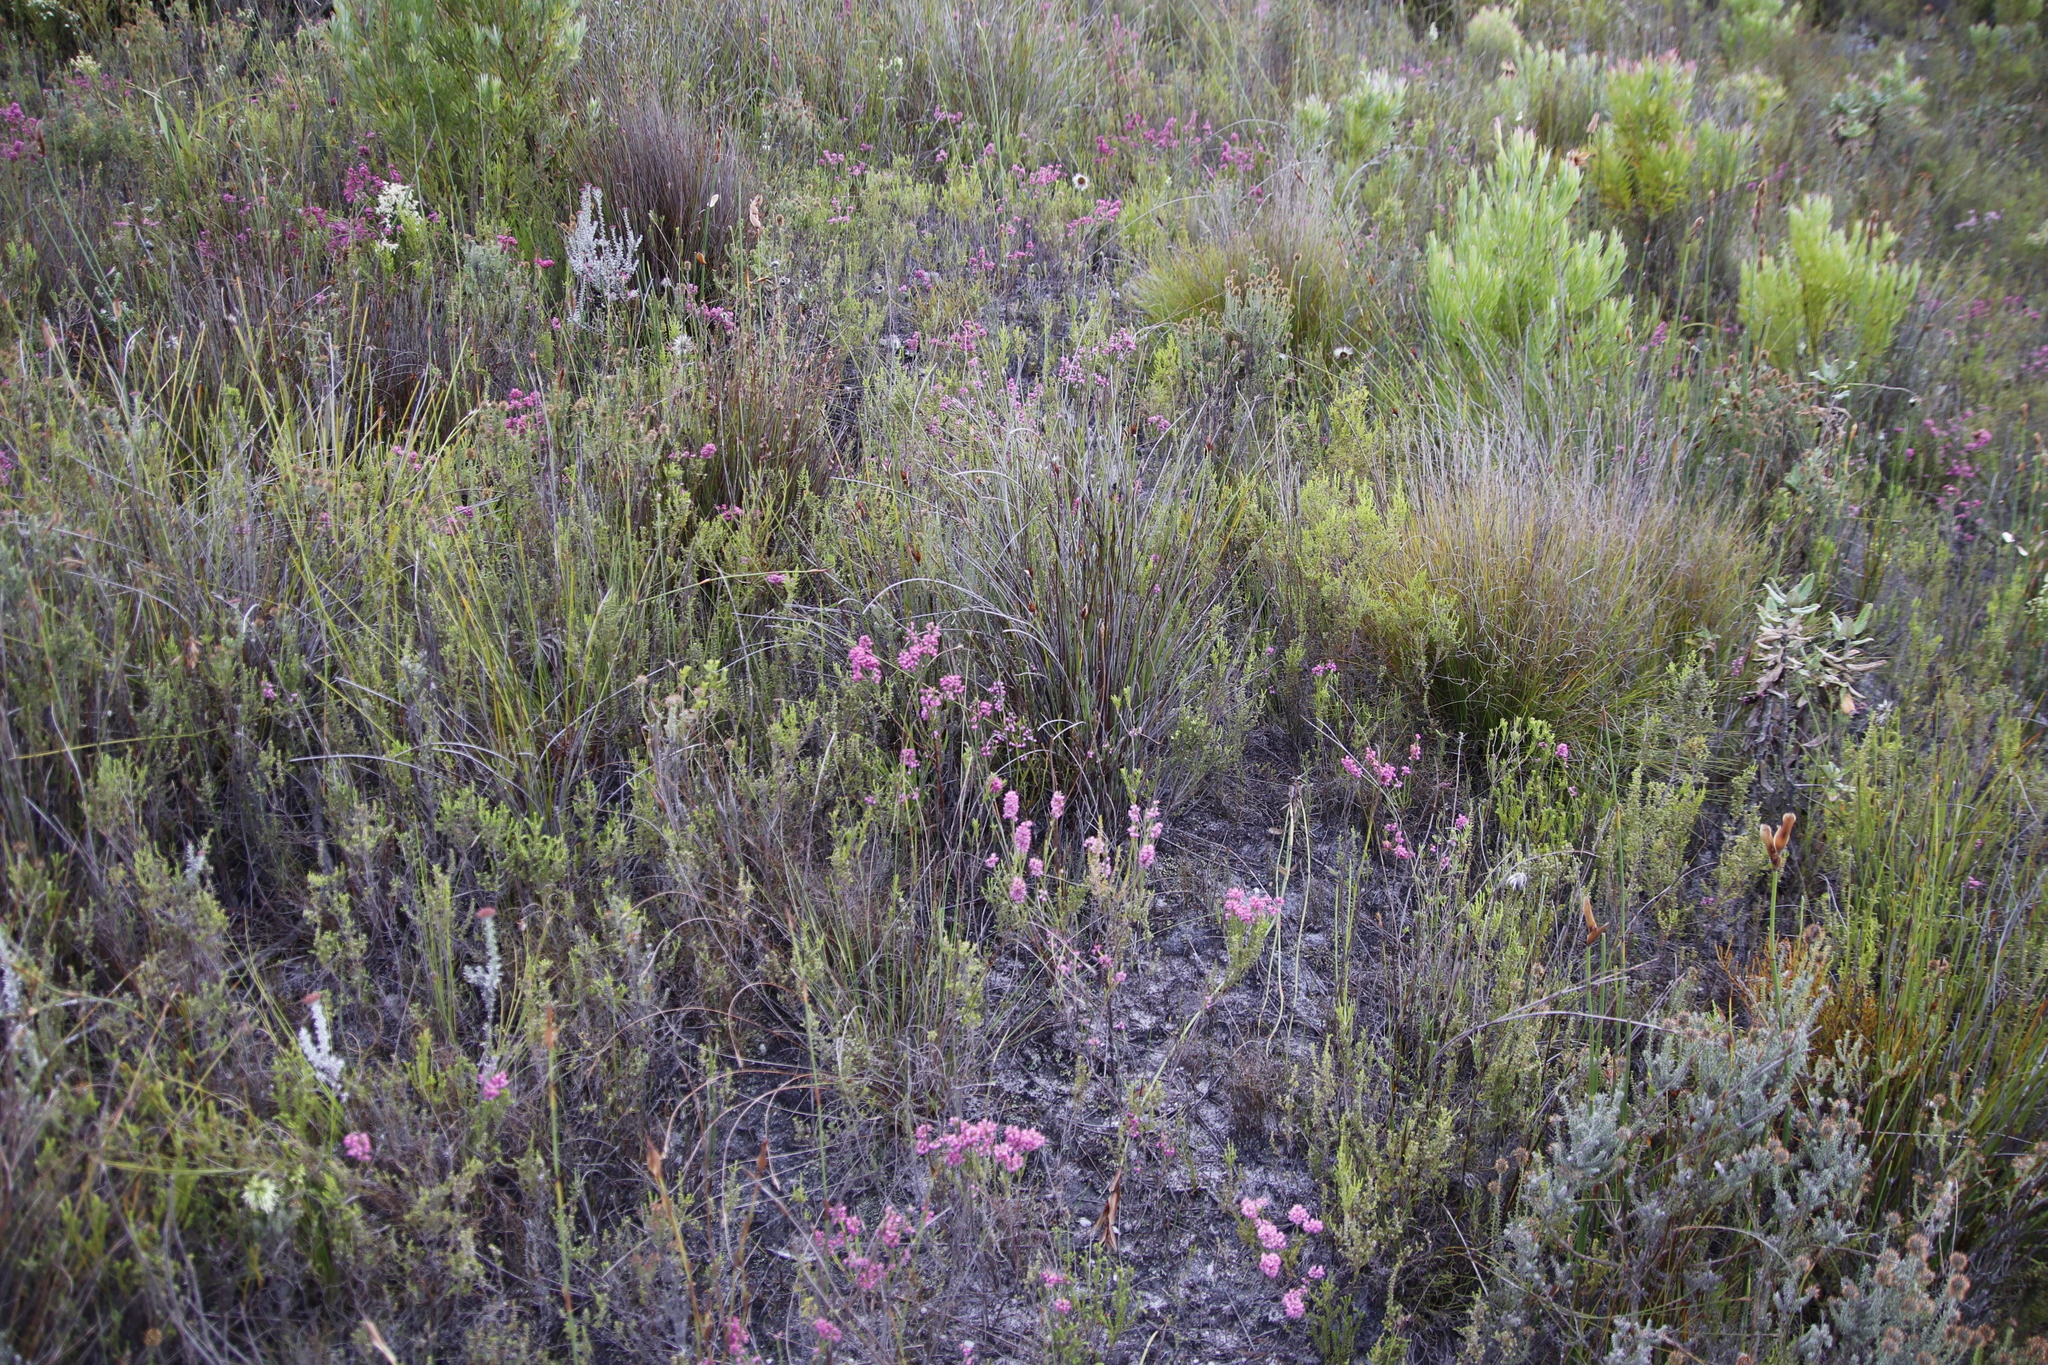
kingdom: Plantae
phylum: Tracheophyta
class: Magnoliopsida
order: Ericales
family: Ericaceae
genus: Erica
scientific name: Erica corifolia
